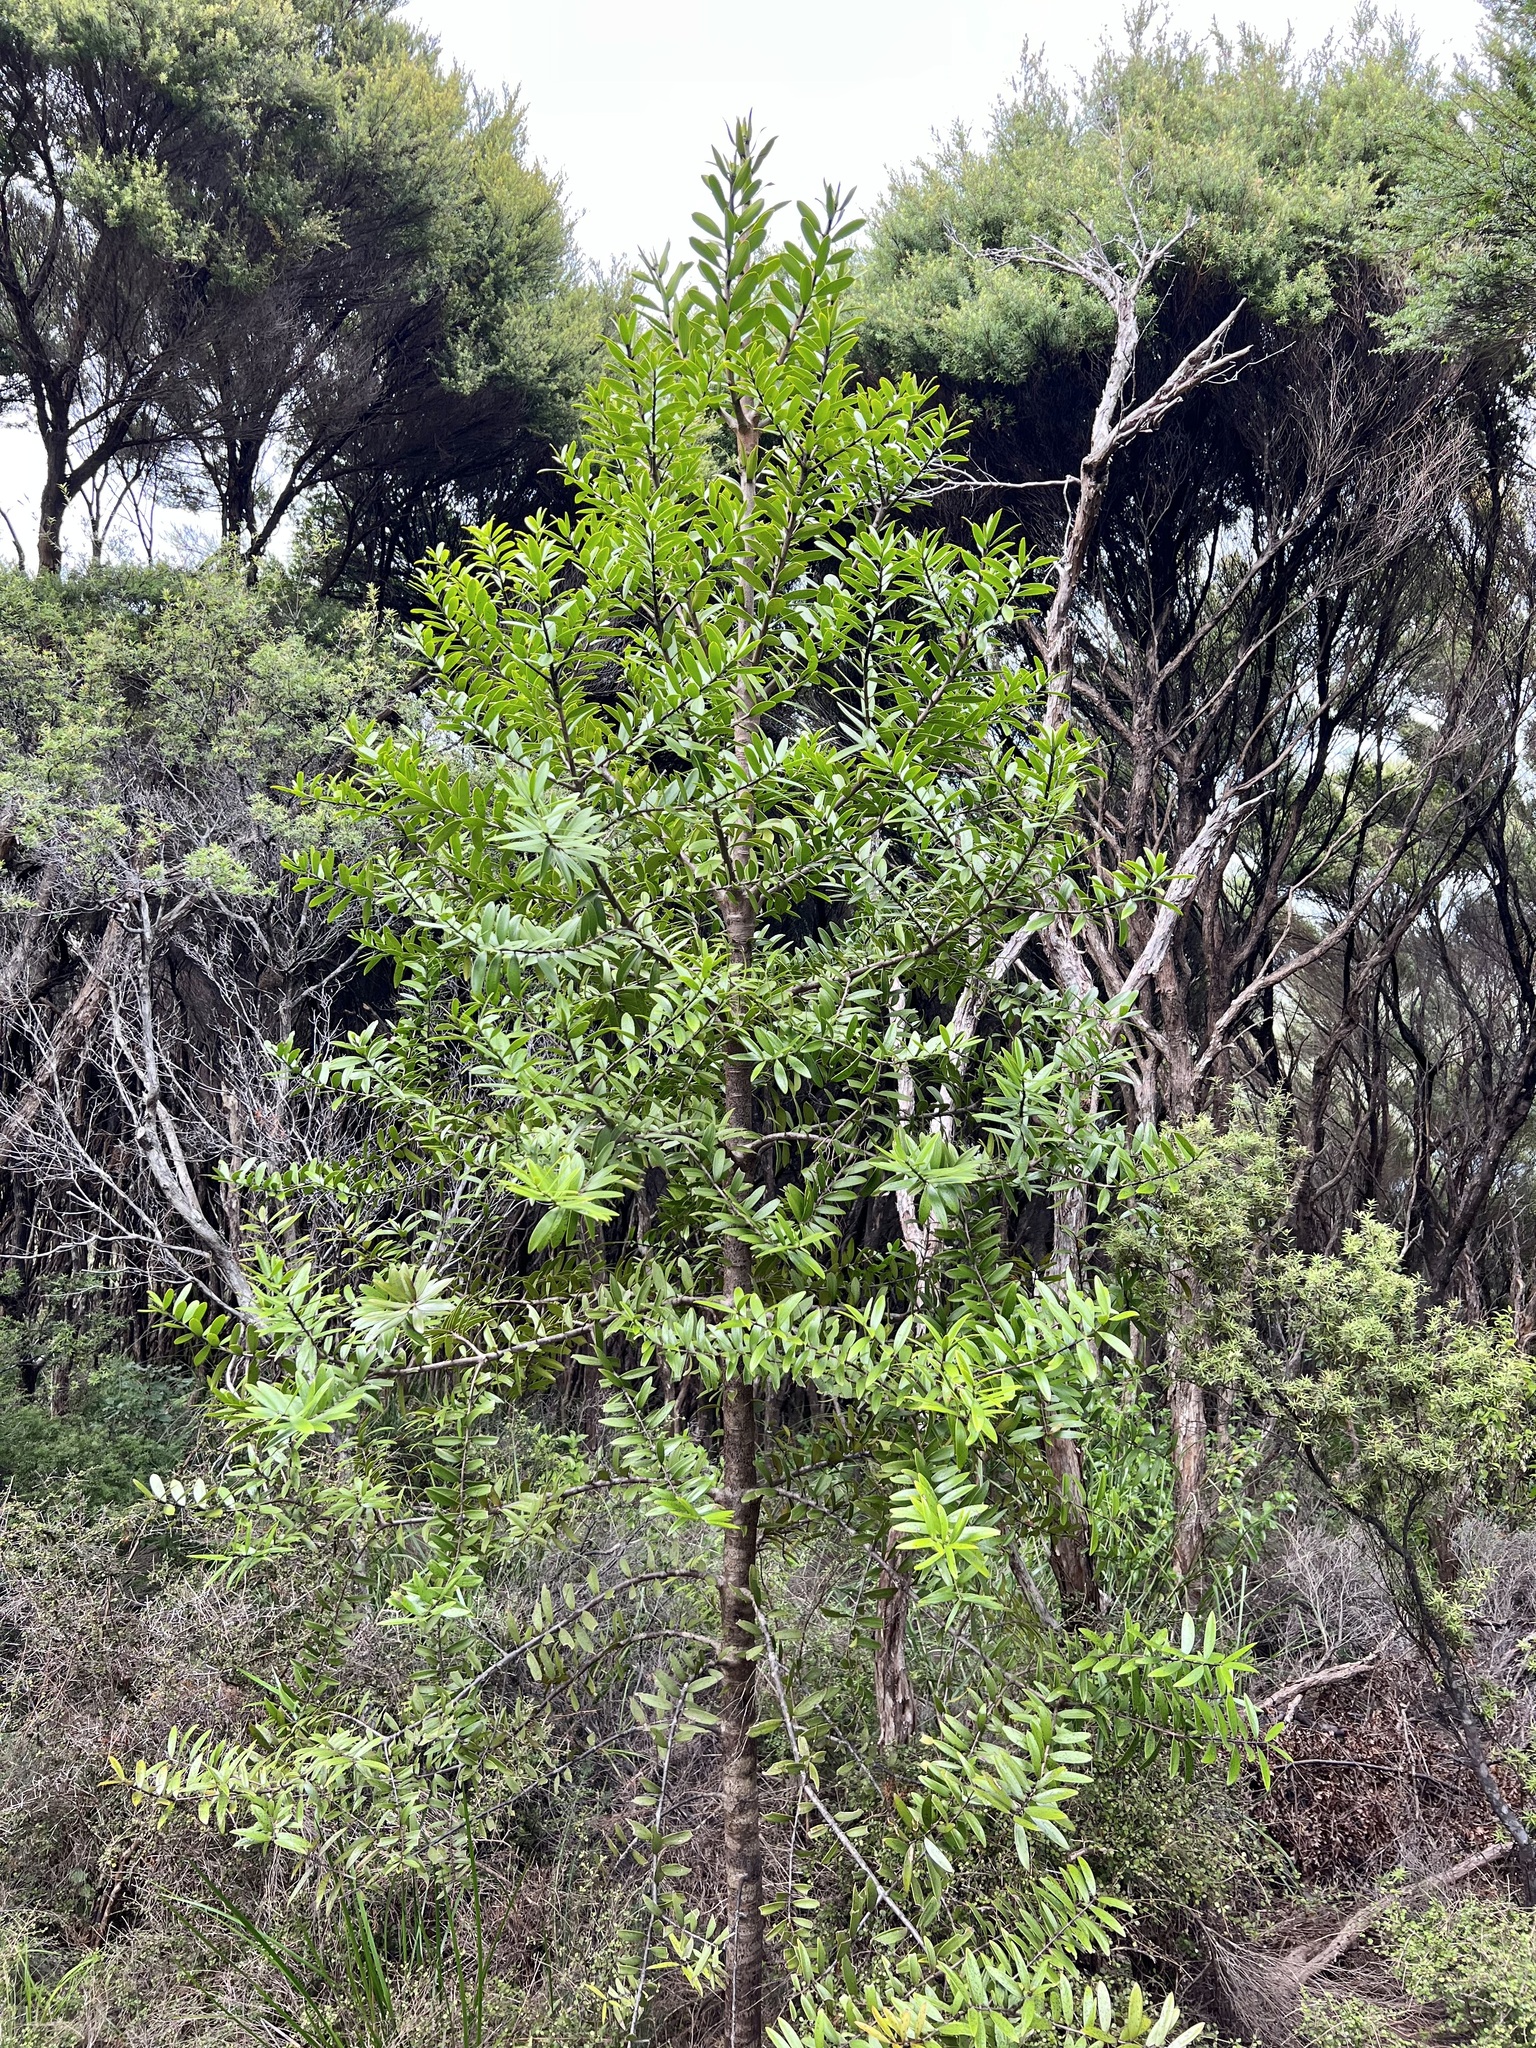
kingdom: Plantae
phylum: Tracheophyta
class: Pinopsida
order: Pinales
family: Araucariaceae
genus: Agathis
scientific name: Agathis australis
